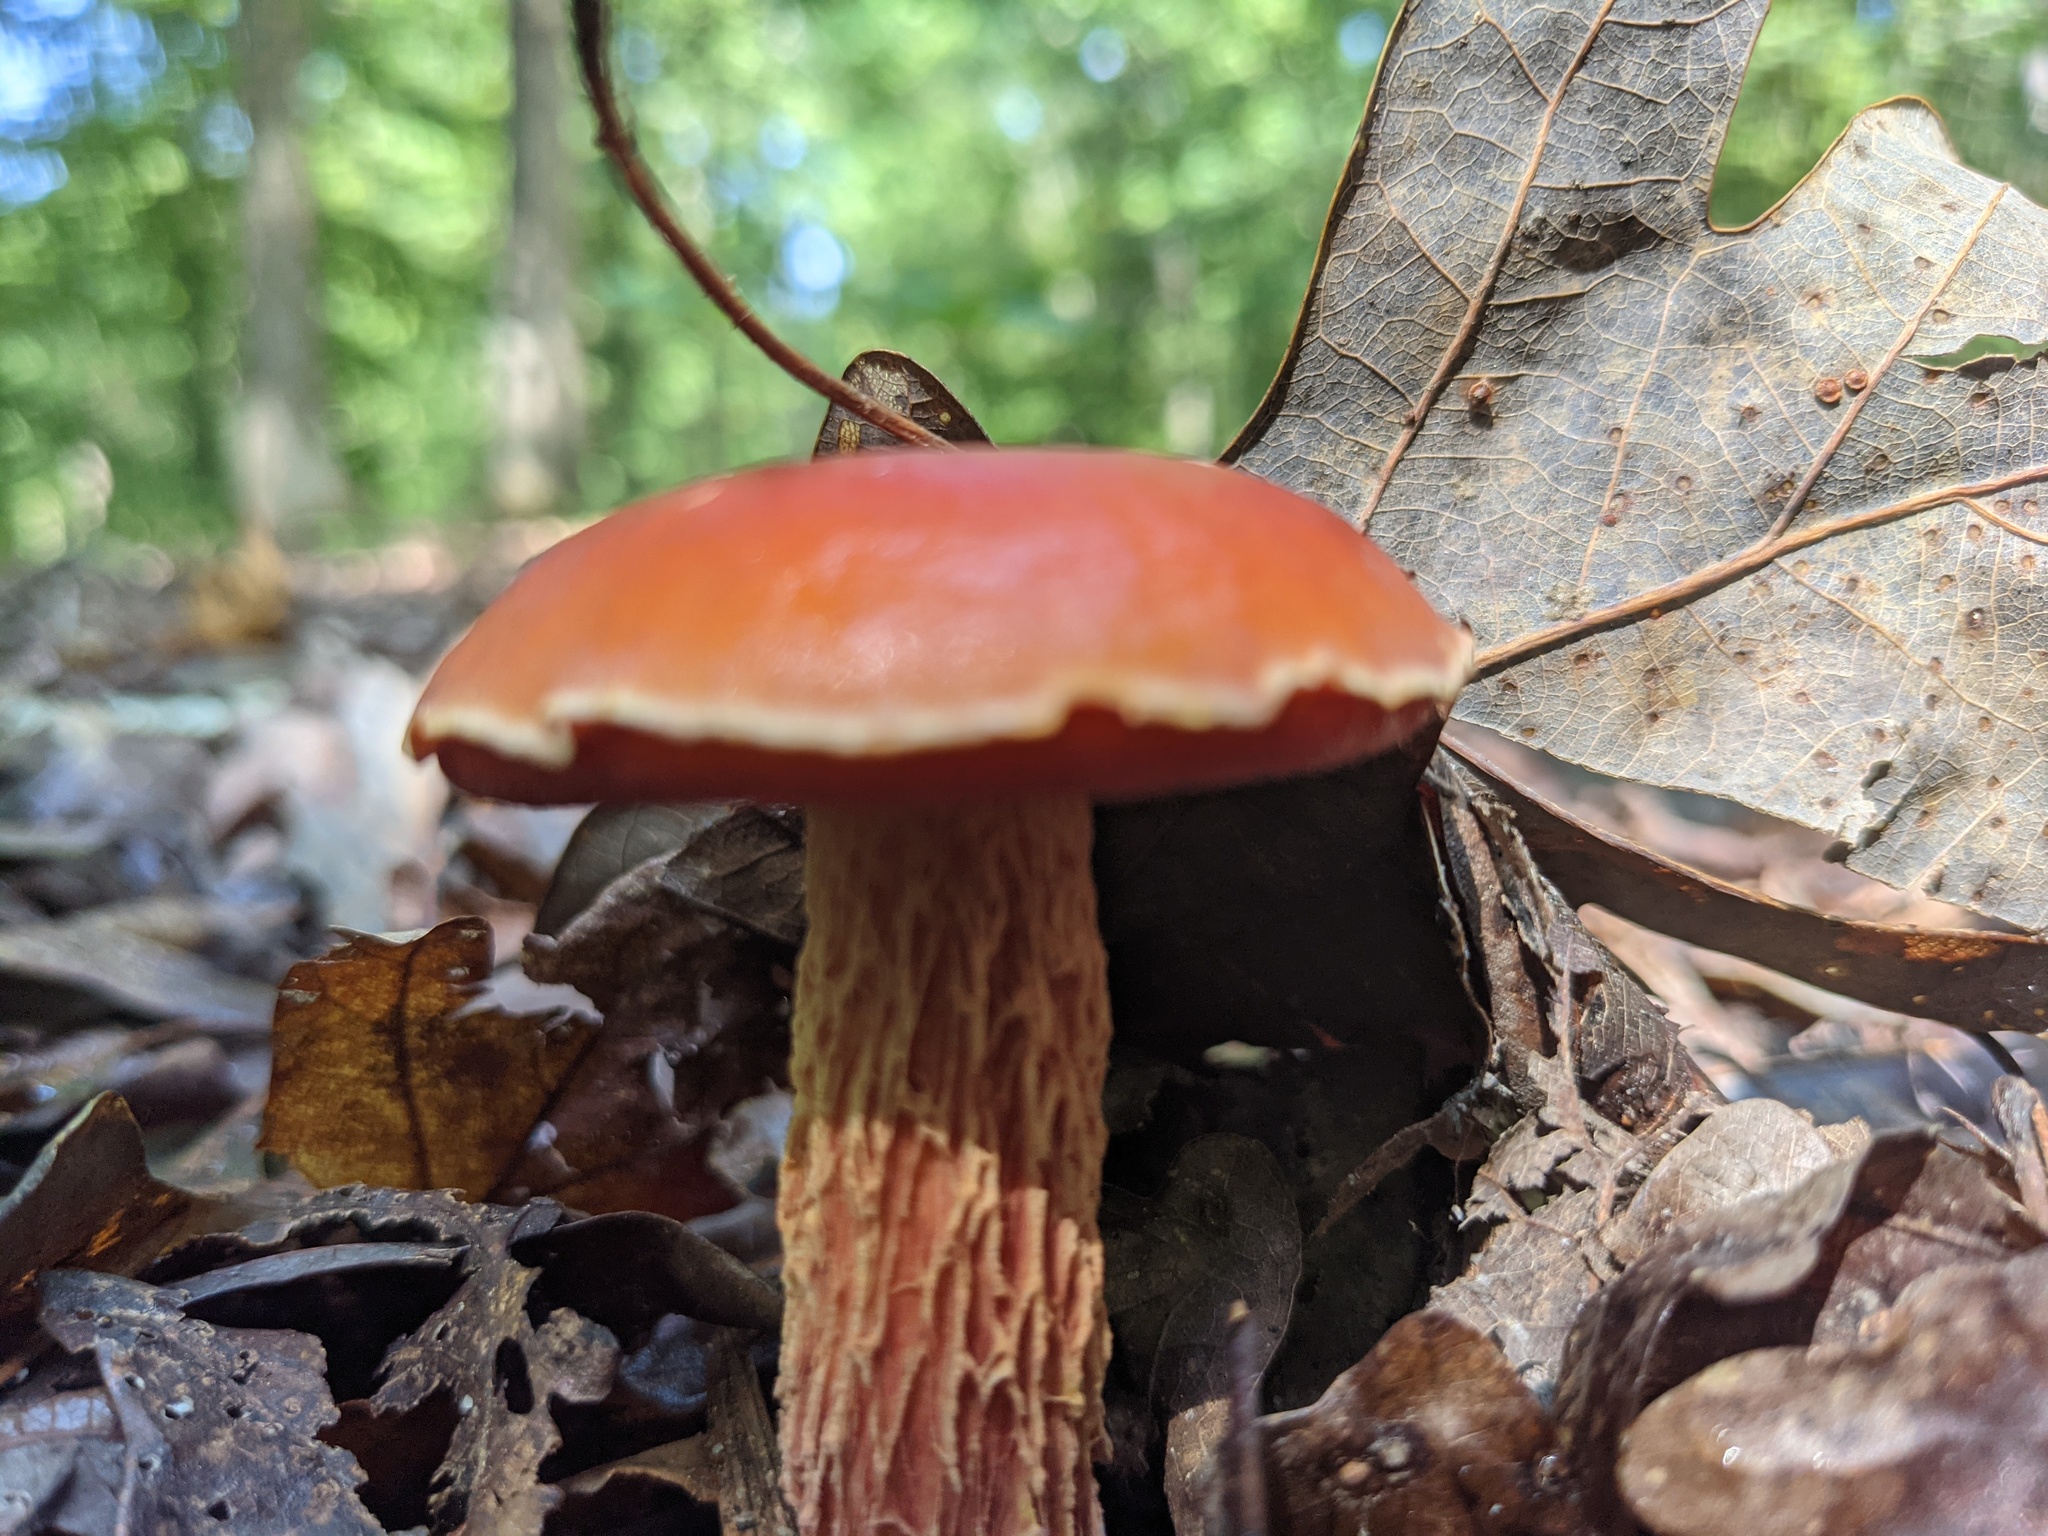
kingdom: Fungi
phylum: Basidiomycota
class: Agaricomycetes
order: Boletales
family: Boletaceae
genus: Butyriboletus
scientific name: Butyriboletus frostii
